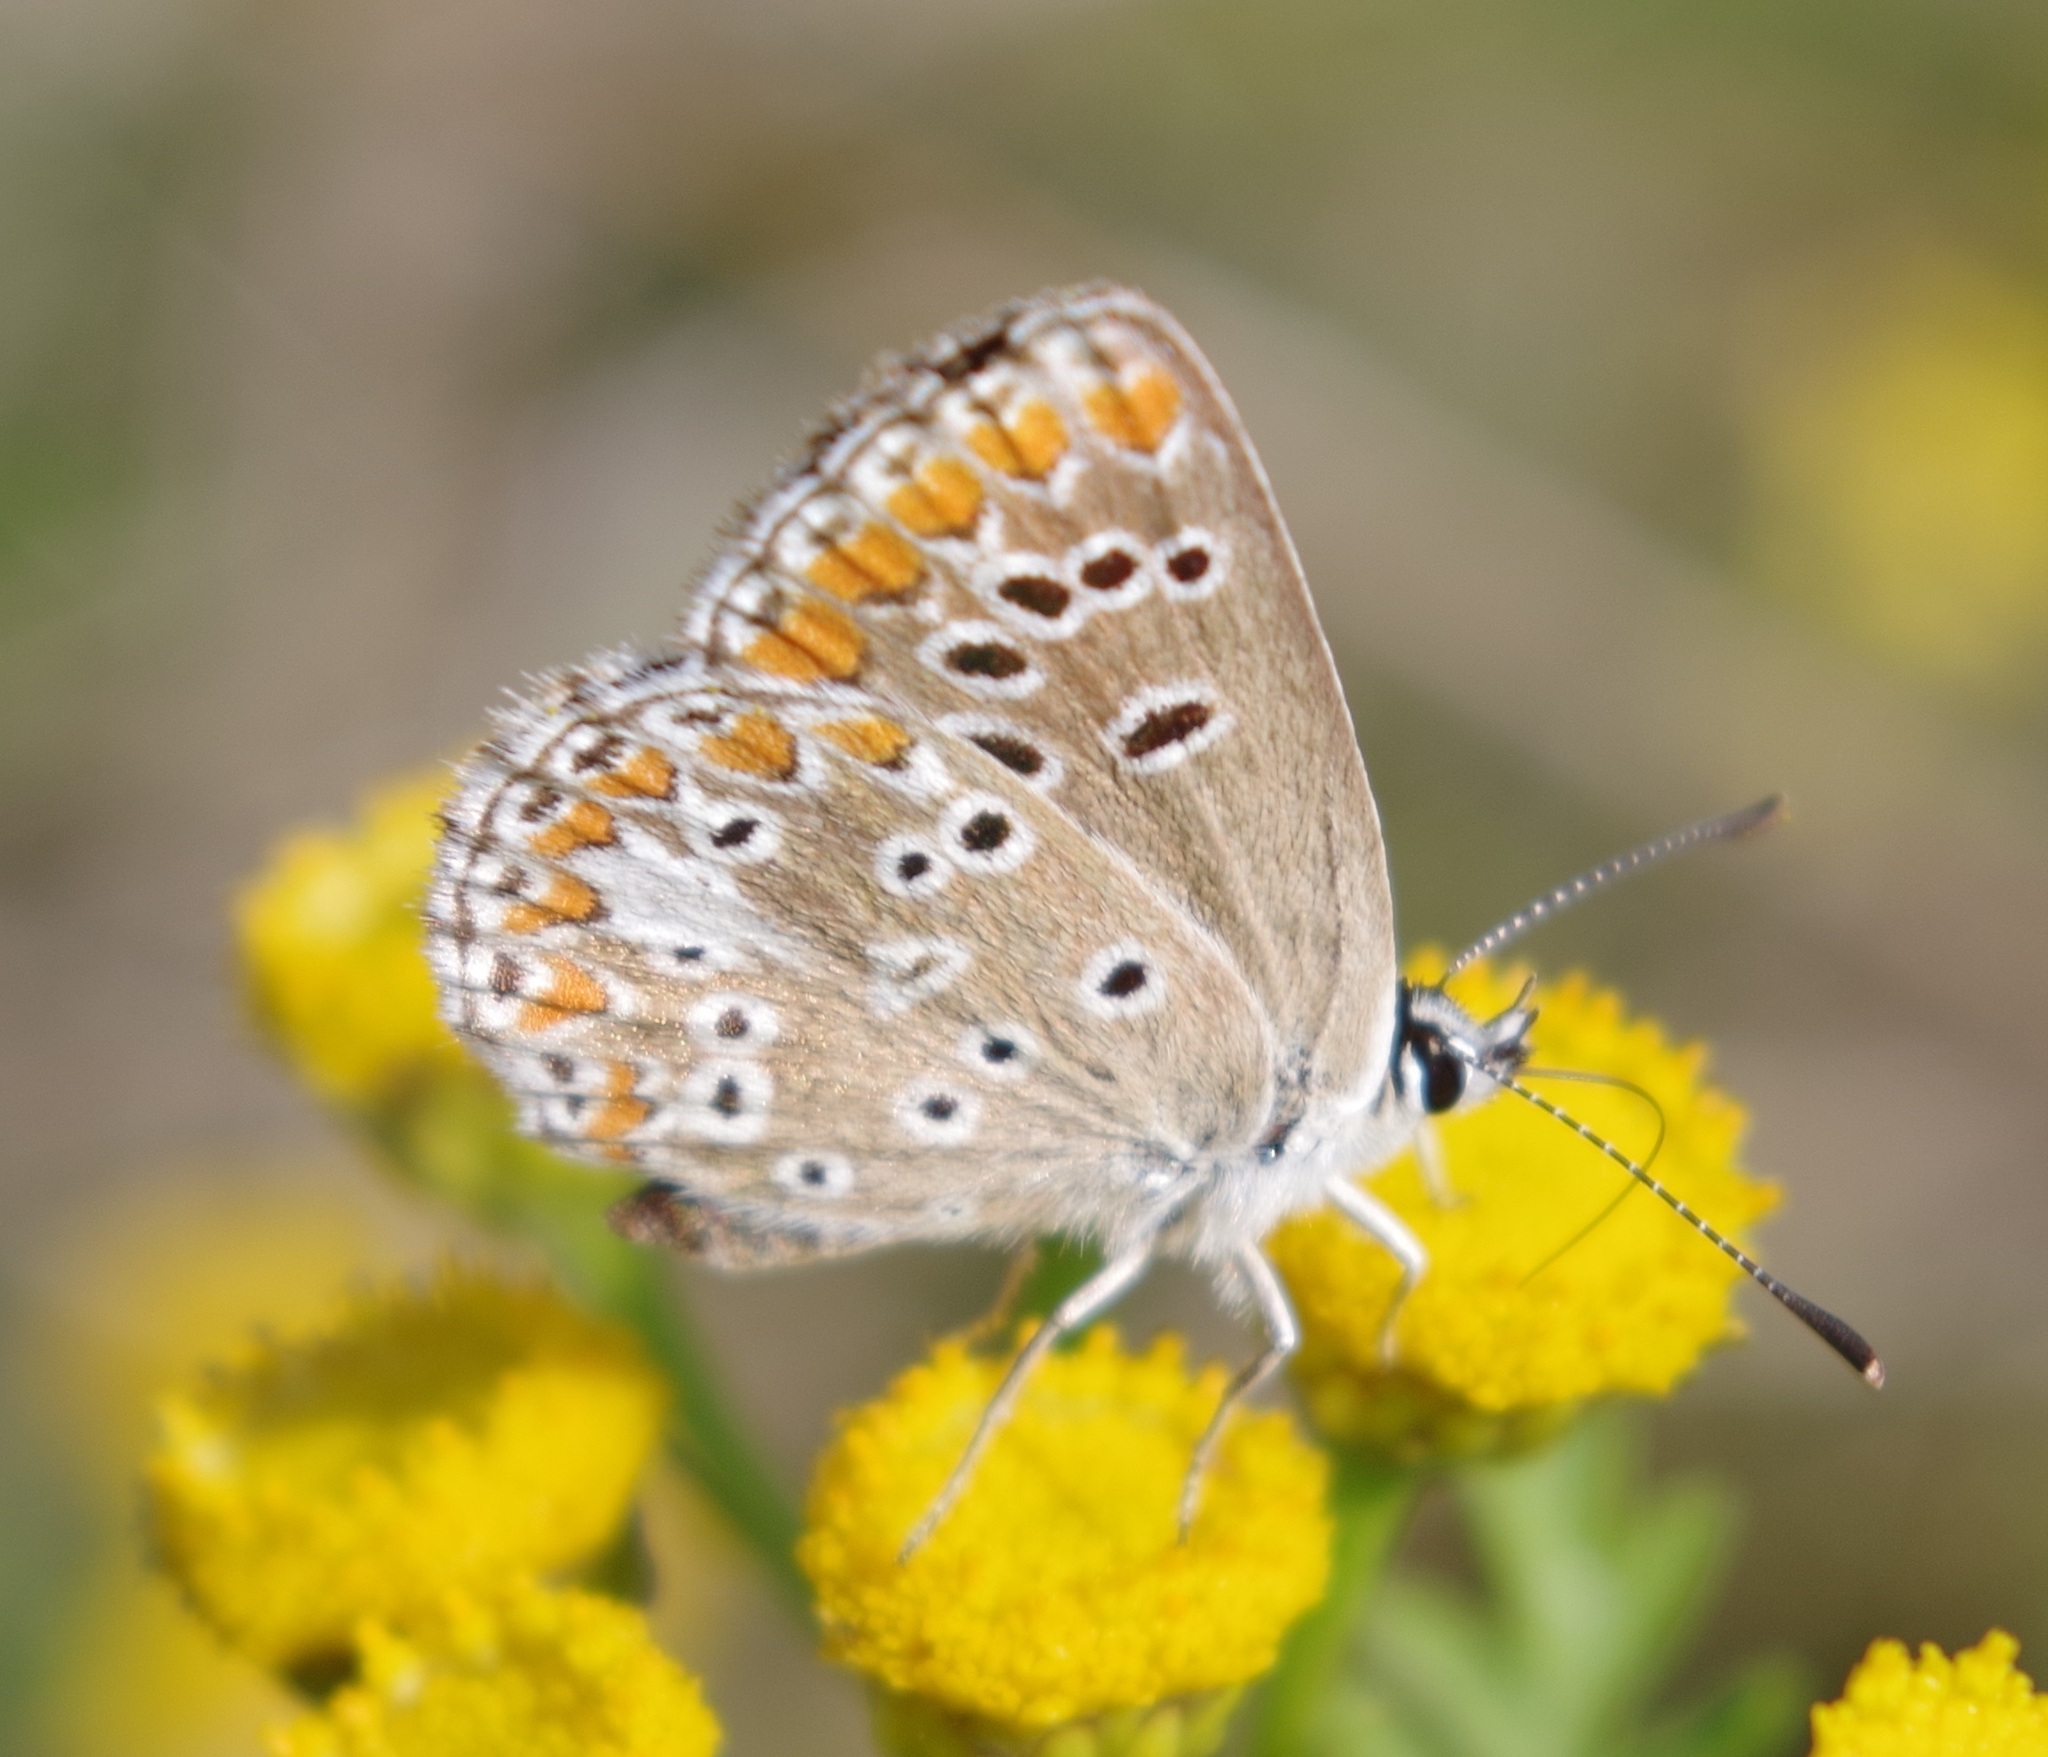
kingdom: Animalia
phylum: Arthropoda
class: Insecta
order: Lepidoptera
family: Lycaenidae
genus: Aricia
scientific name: Aricia agestis
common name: Brown argus
